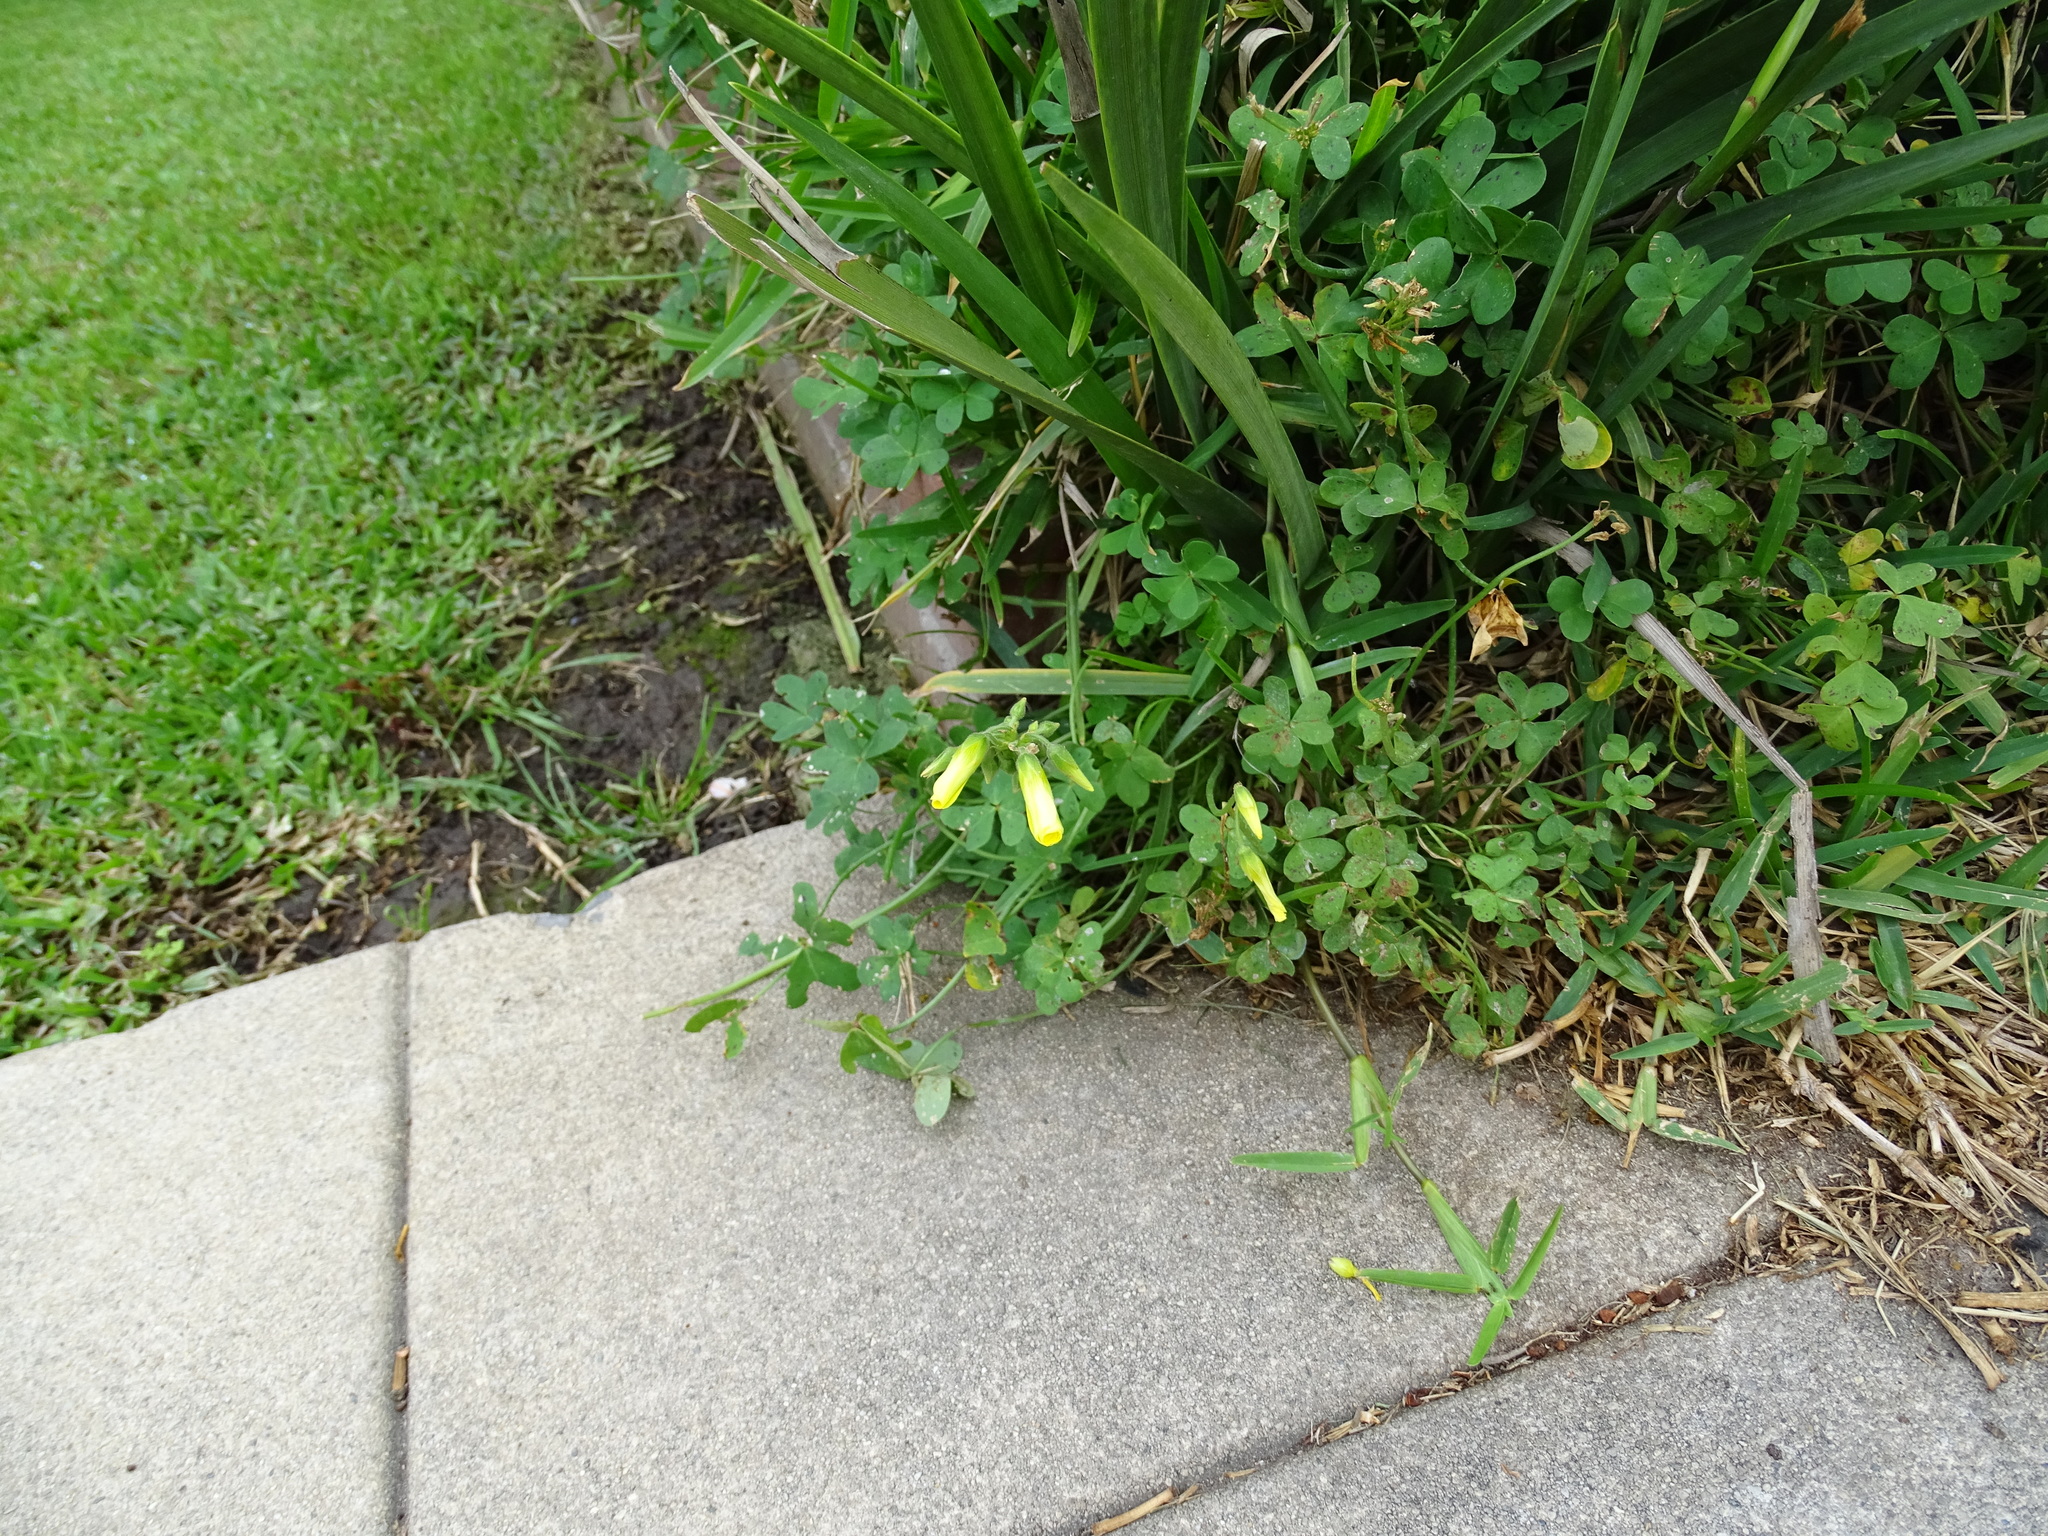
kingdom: Plantae
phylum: Tracheophyta
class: Magnoliopsida
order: Oxalidales
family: Oxalidaceae
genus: Oxalis
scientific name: Oxalis pes-caprae
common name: Bermuda-buttercup
